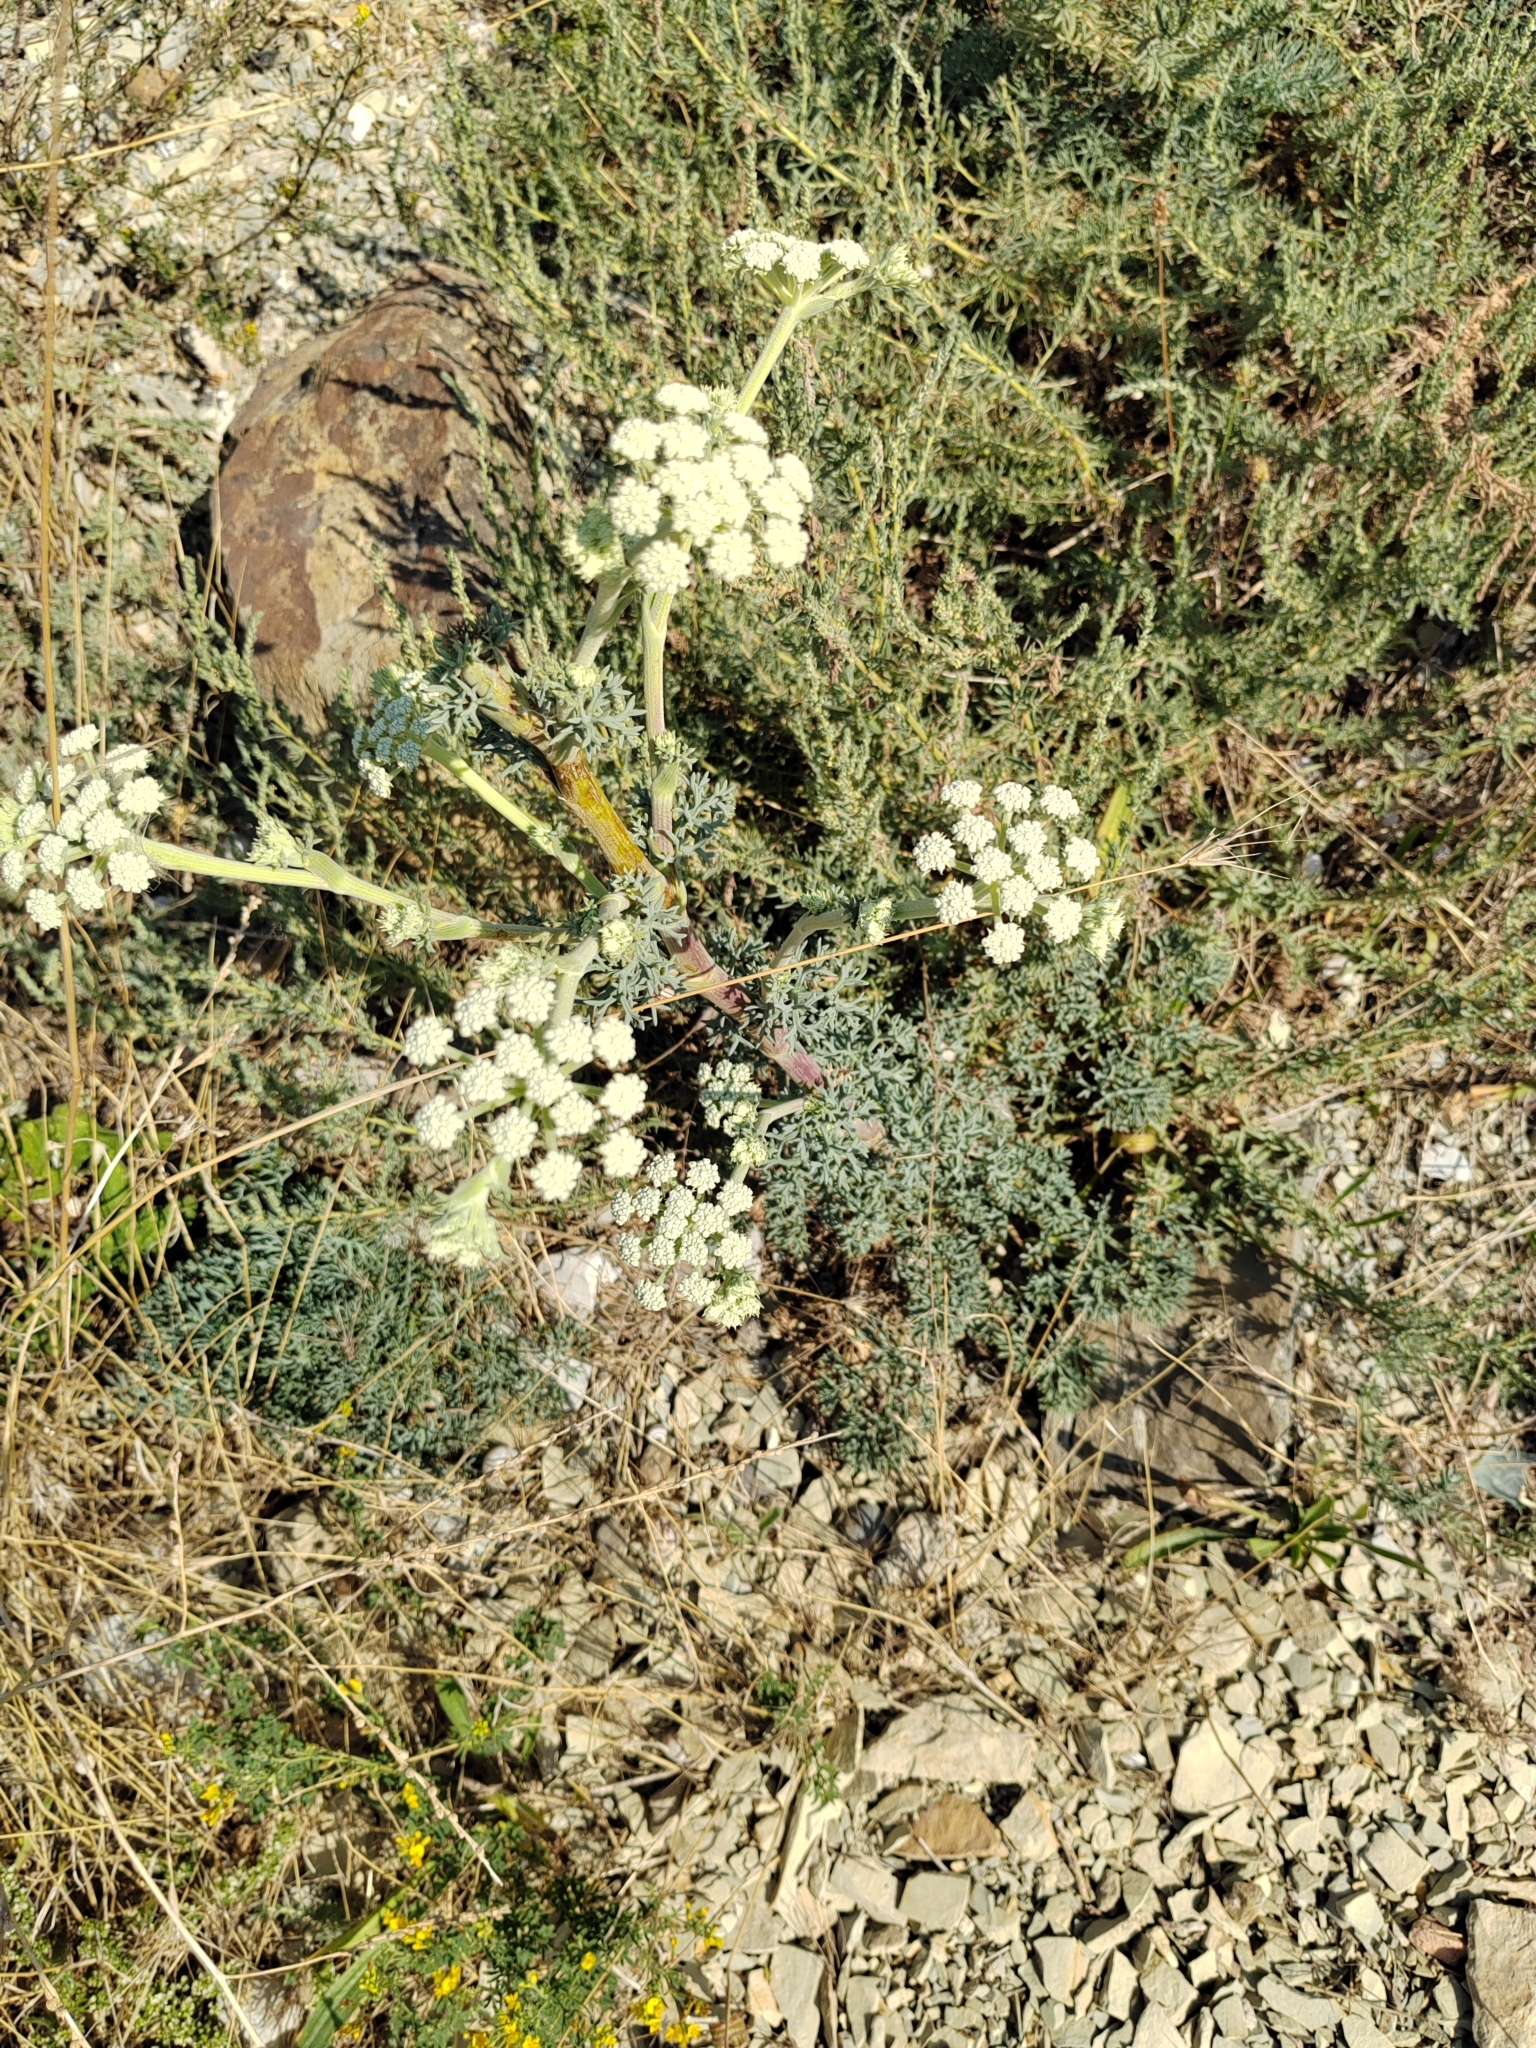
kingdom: Plantae
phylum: Tracheophyta
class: Magnoliopsida
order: Apiales
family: Apiaceae
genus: Seseli
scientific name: Seseli ponticum
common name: Pontic seseli
